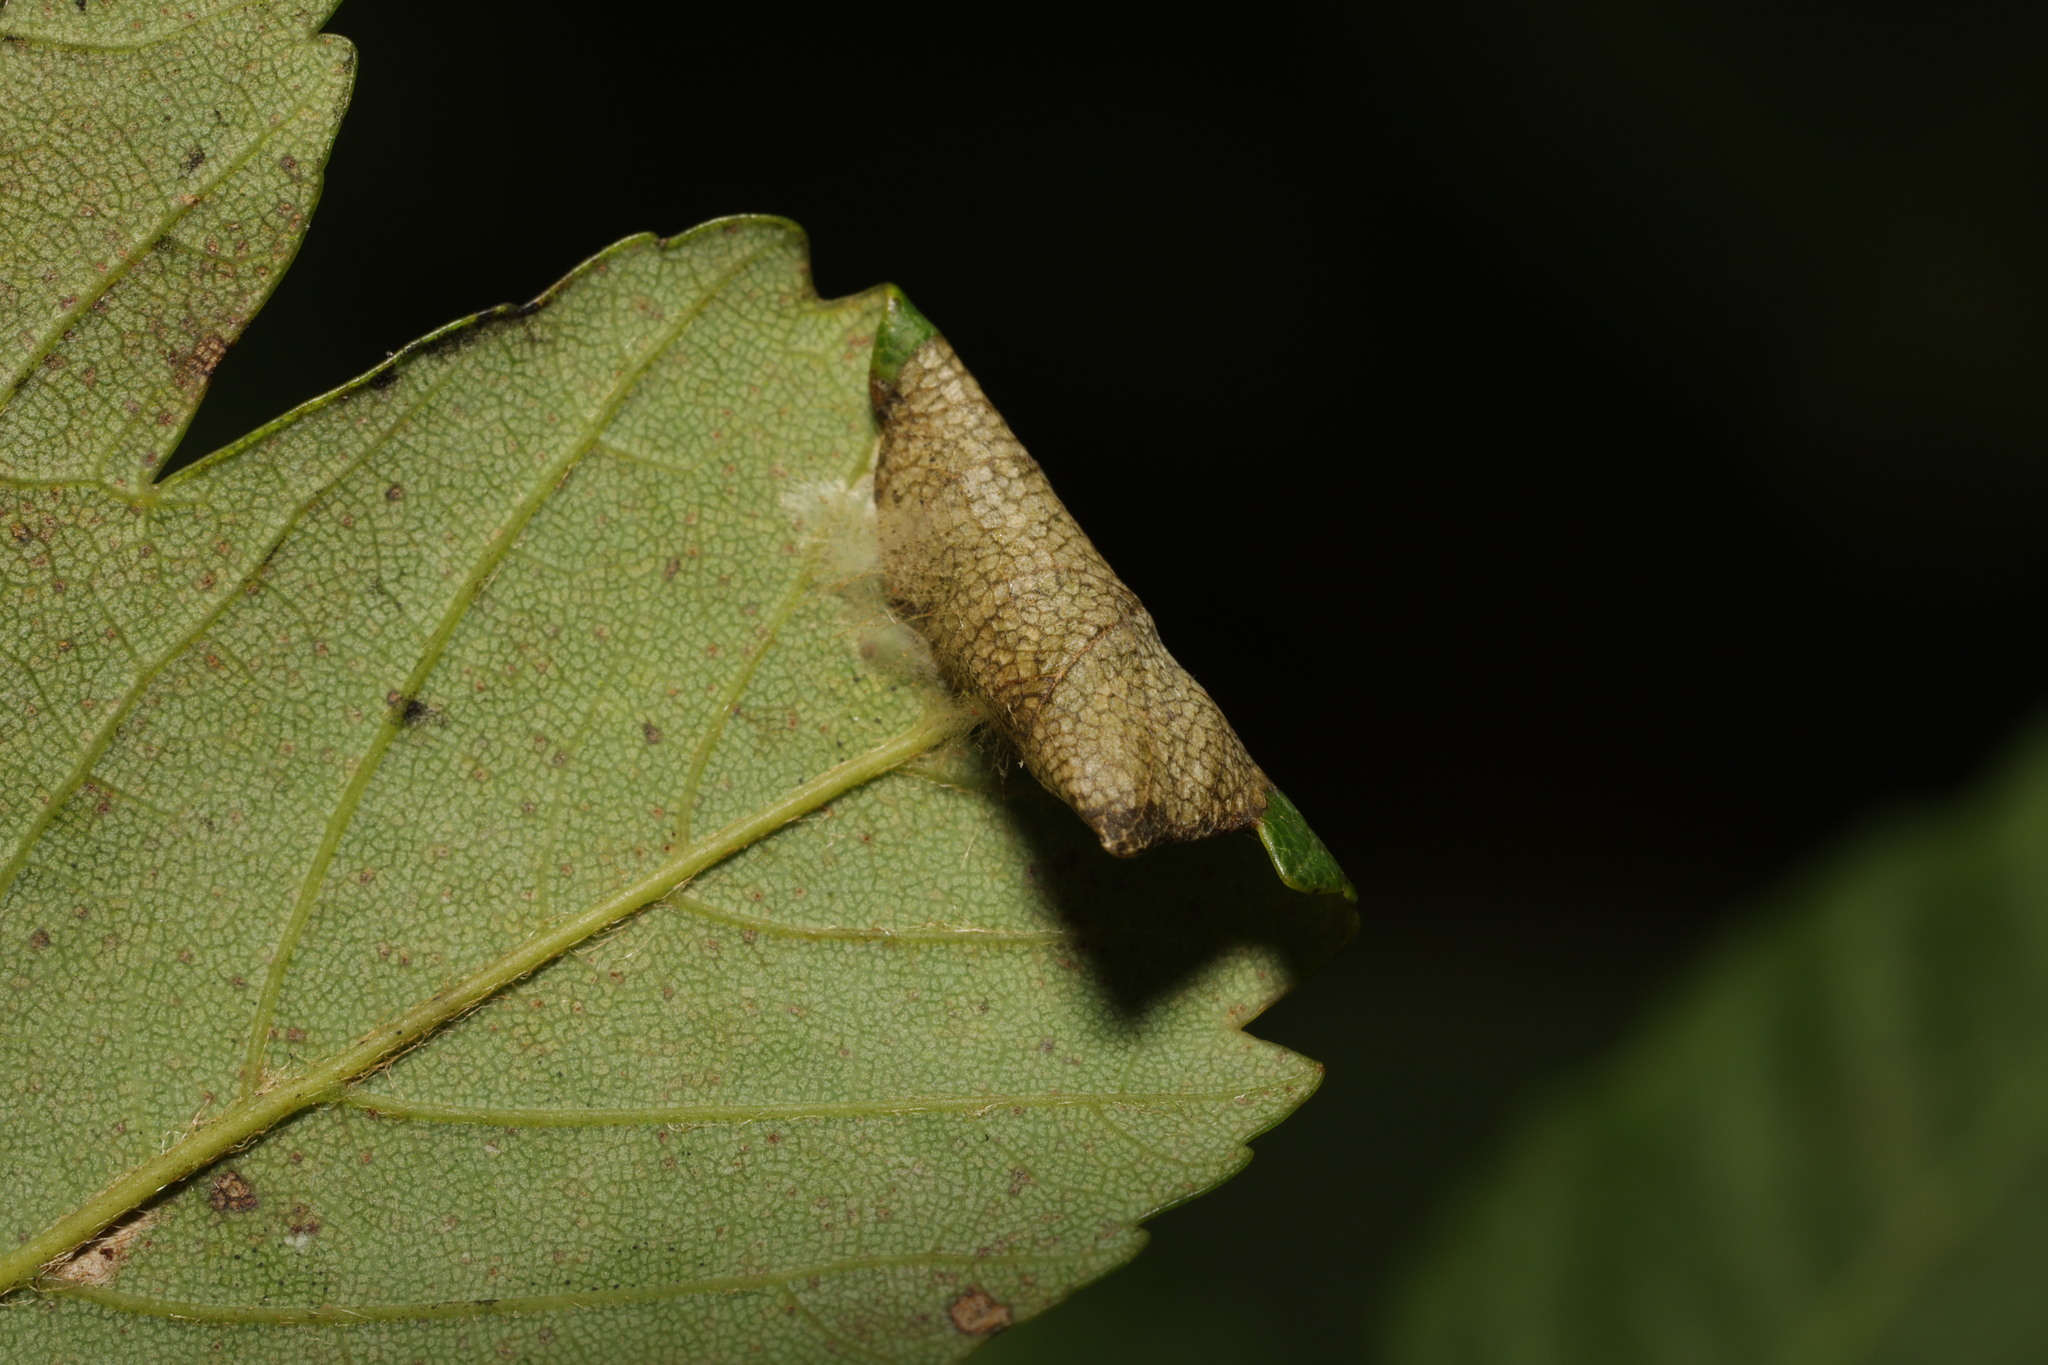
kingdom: Animalia
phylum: Arthropoda
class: Insecta
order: Lepidoptera
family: Gracillariidae
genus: Caloptilia
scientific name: Caloptilia rufipennella
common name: Small red slender
